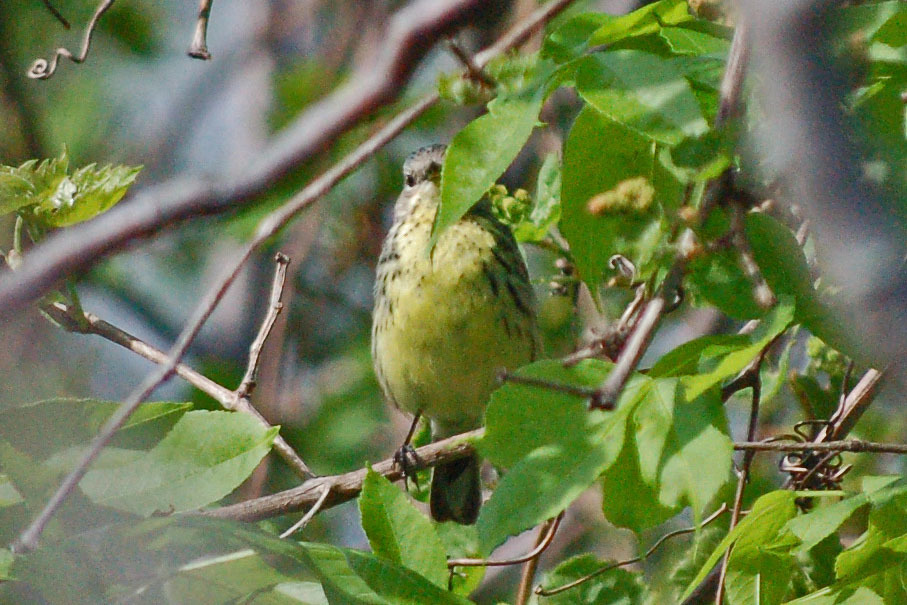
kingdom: Animalia
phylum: Chordata
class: Aves
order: Passeriformes
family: Parulidae
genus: Setophaga
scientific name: Setophaga kirtlandii
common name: Kirtland's warbler
